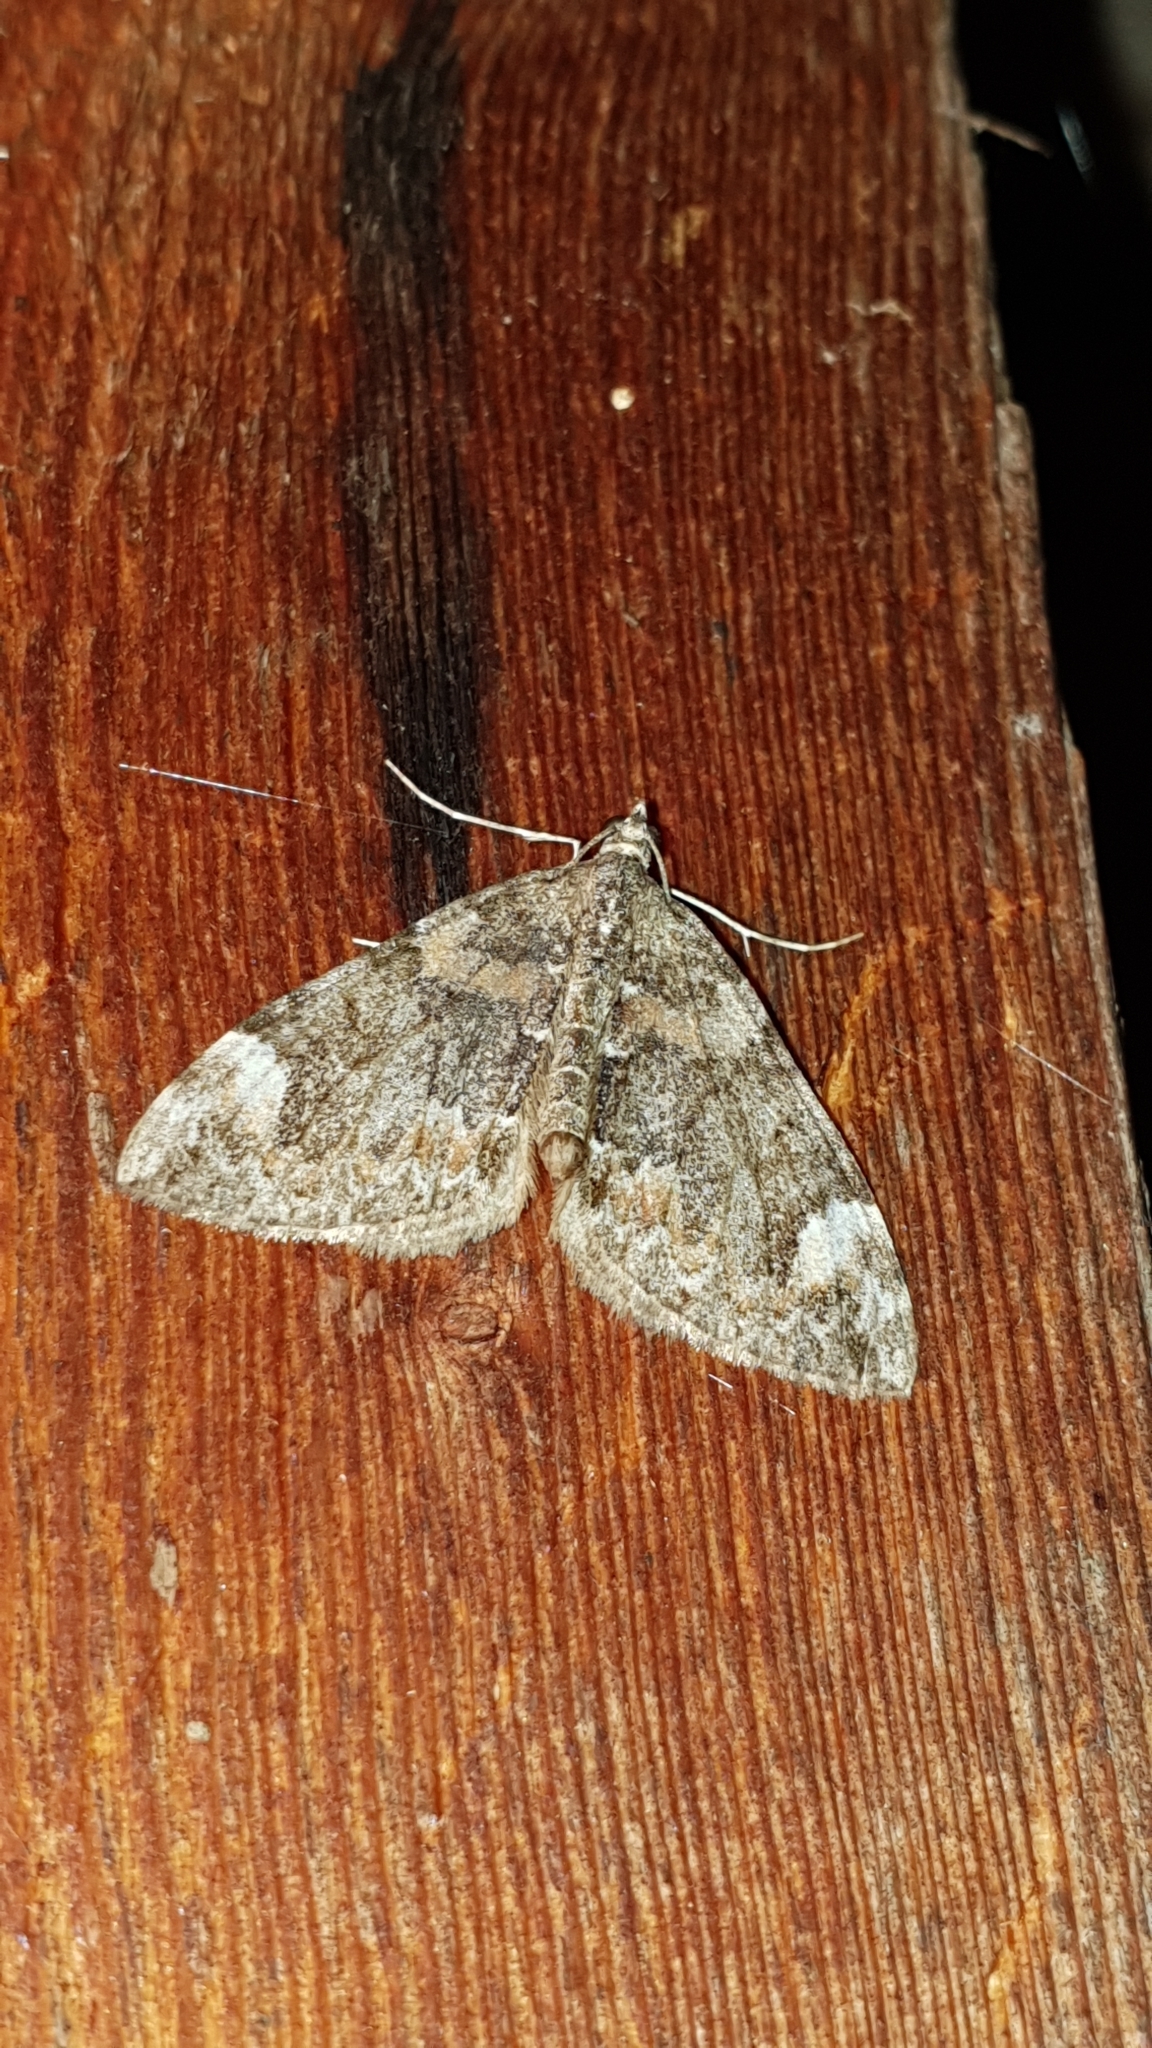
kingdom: Animalia
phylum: Arthropoda
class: Insecta
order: Lepidoptera
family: Geometridae
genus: Dysstroma
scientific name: Dysstroma citrata
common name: Dark marbled carpet
